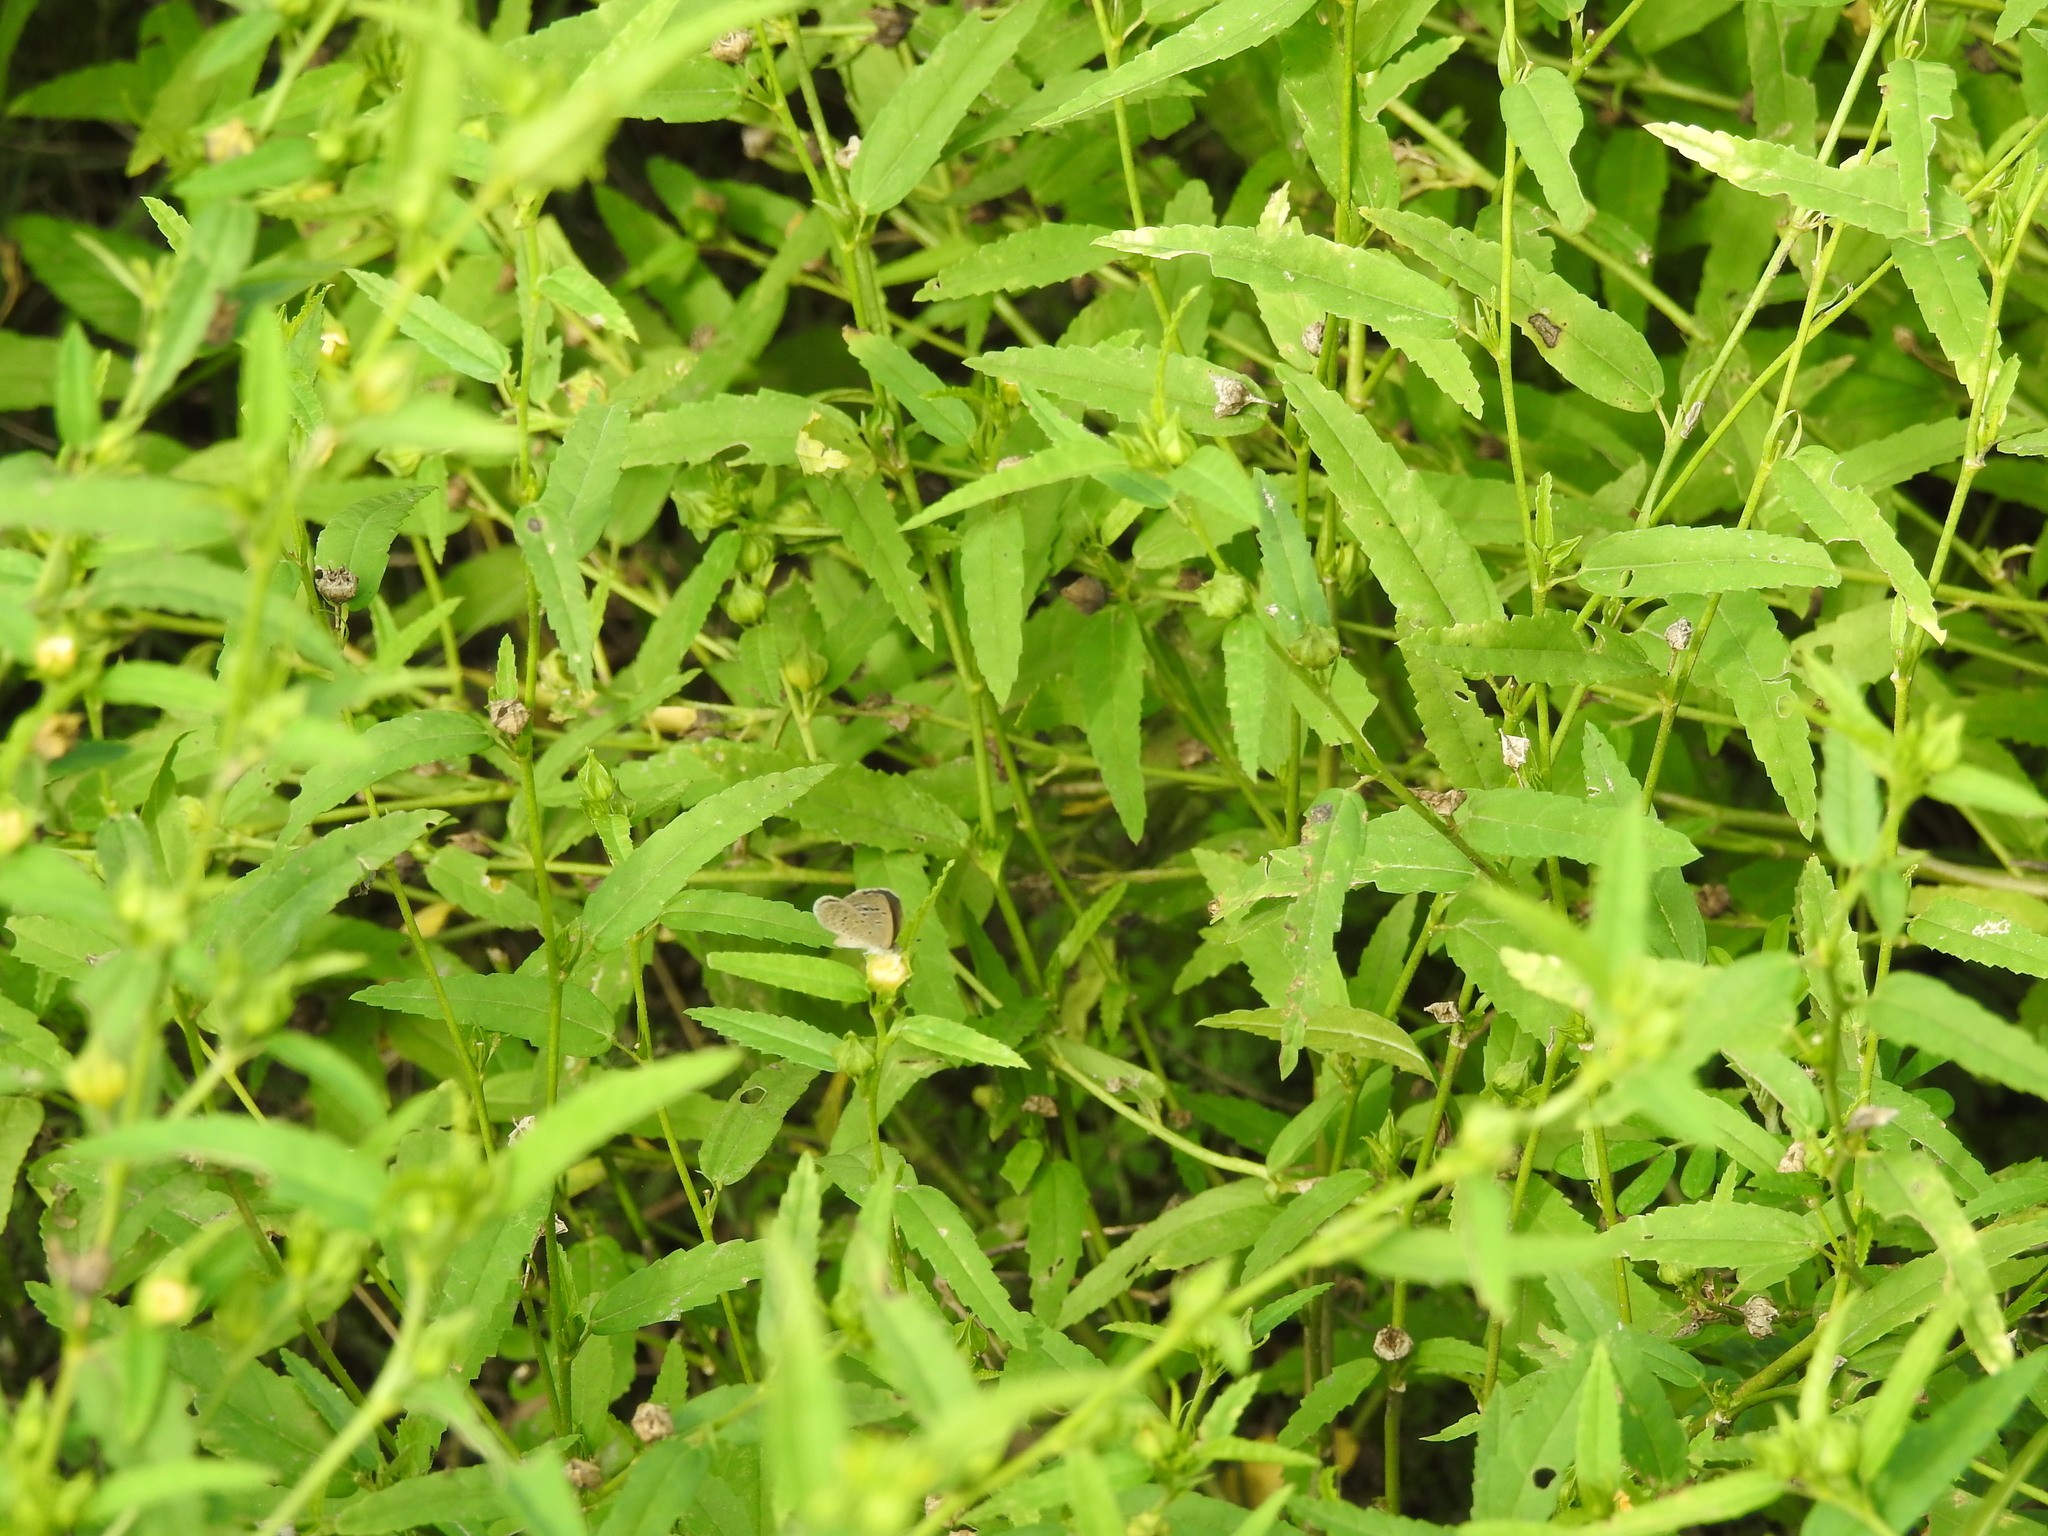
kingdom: Animalia
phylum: Arthropoda
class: Insecta
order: Lepidoptera
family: Lycaenidae
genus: Zizina
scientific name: Zizina otis
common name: Lesser grass blue
